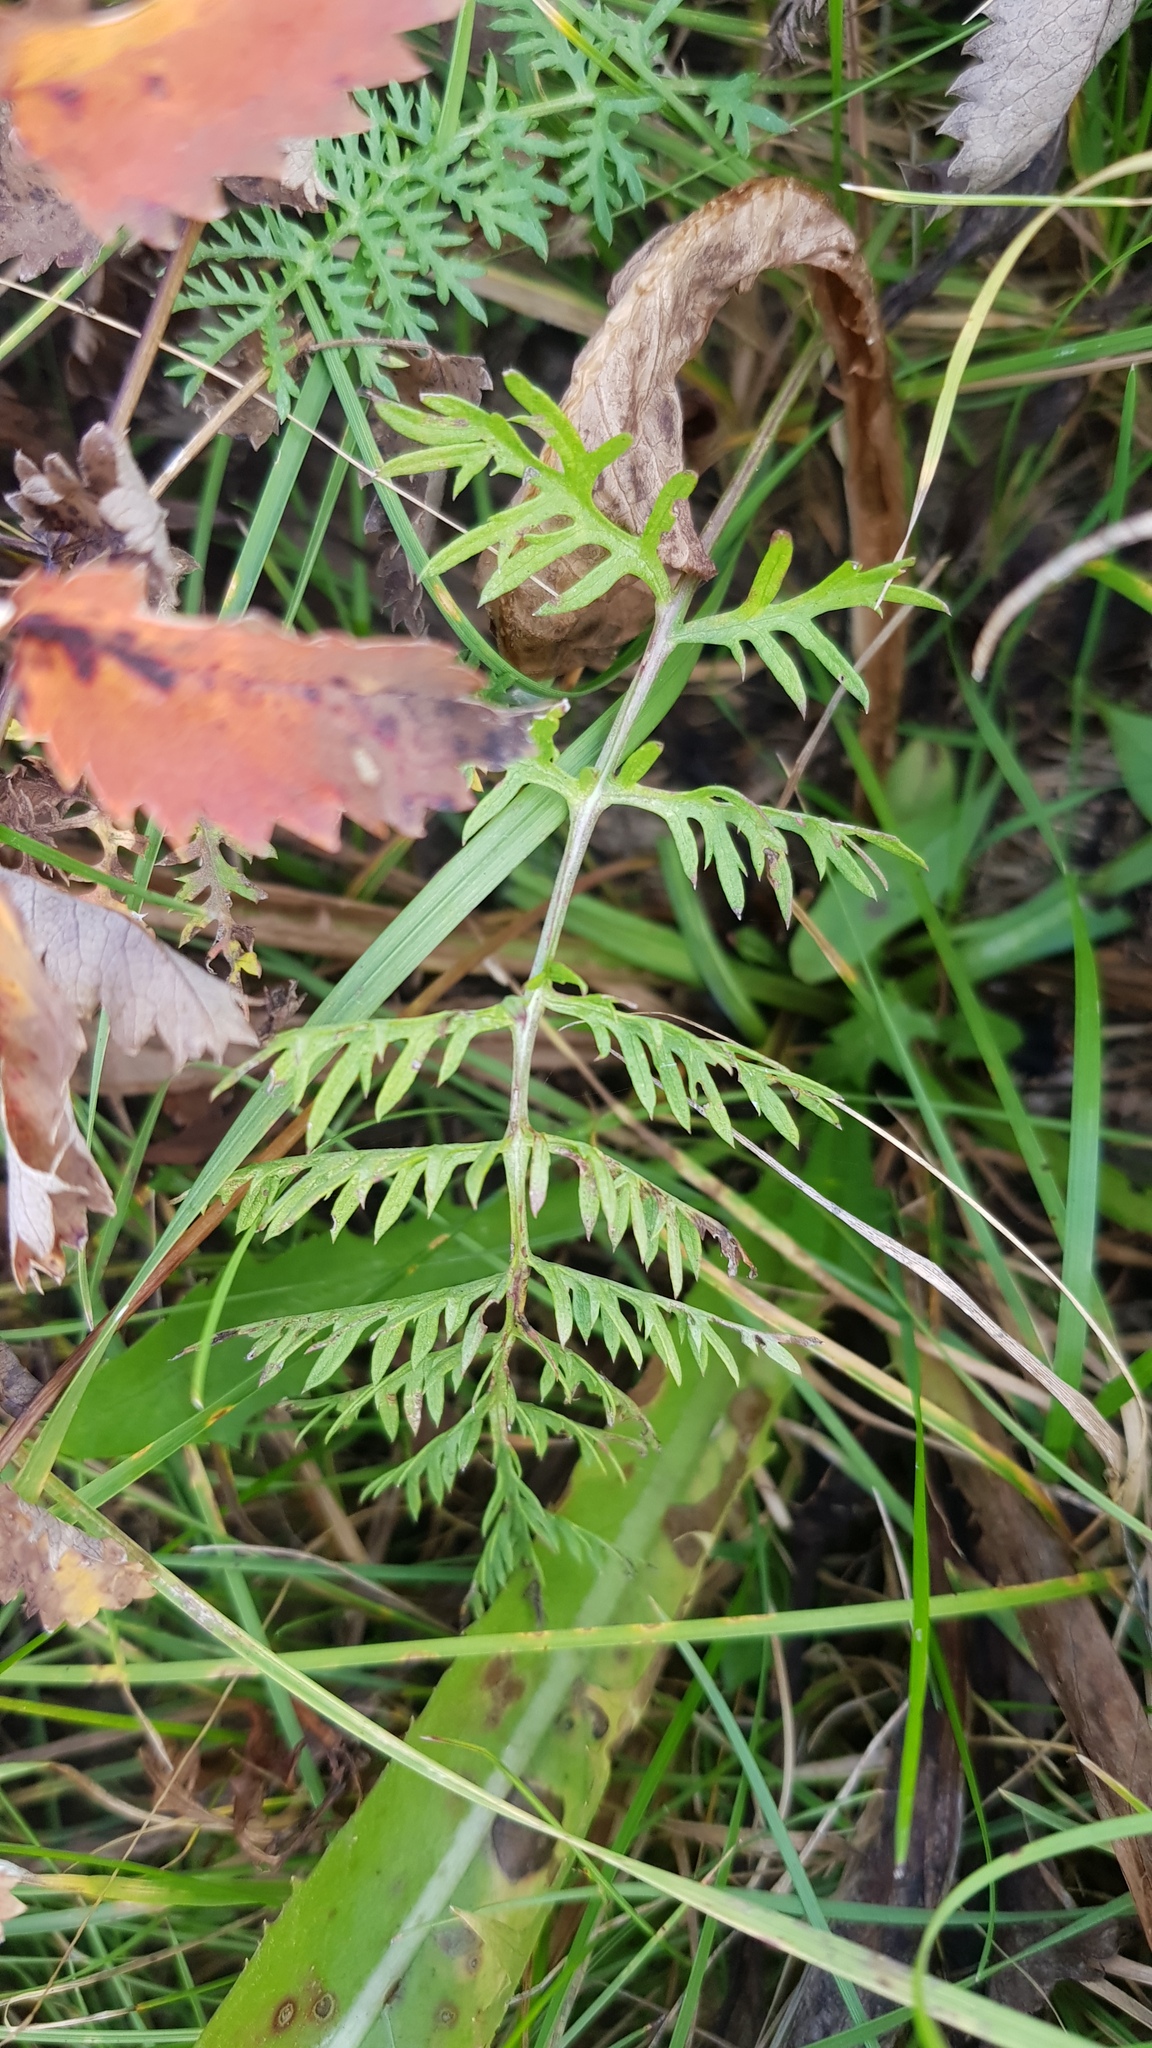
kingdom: Plantae
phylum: Tracheophyta
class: Magnoliopsida
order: Asterales
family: Asteraceae
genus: Artemisia
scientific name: Artemisia tanacetifolia
